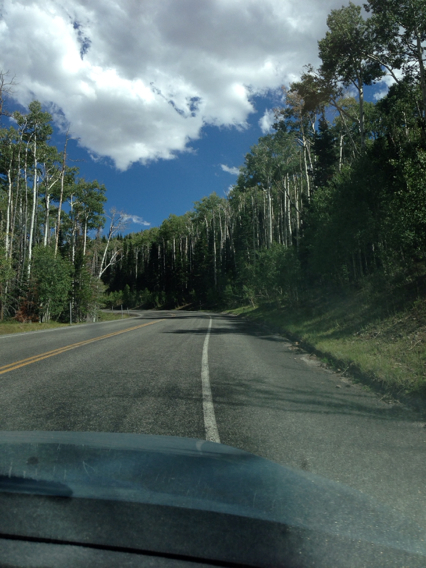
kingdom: Plantae
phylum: Tracheophyta
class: Magnoliopsida
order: Malpighiales
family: Salicaceae
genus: Populus
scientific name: Populus tremuloides
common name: Quaking aspen
